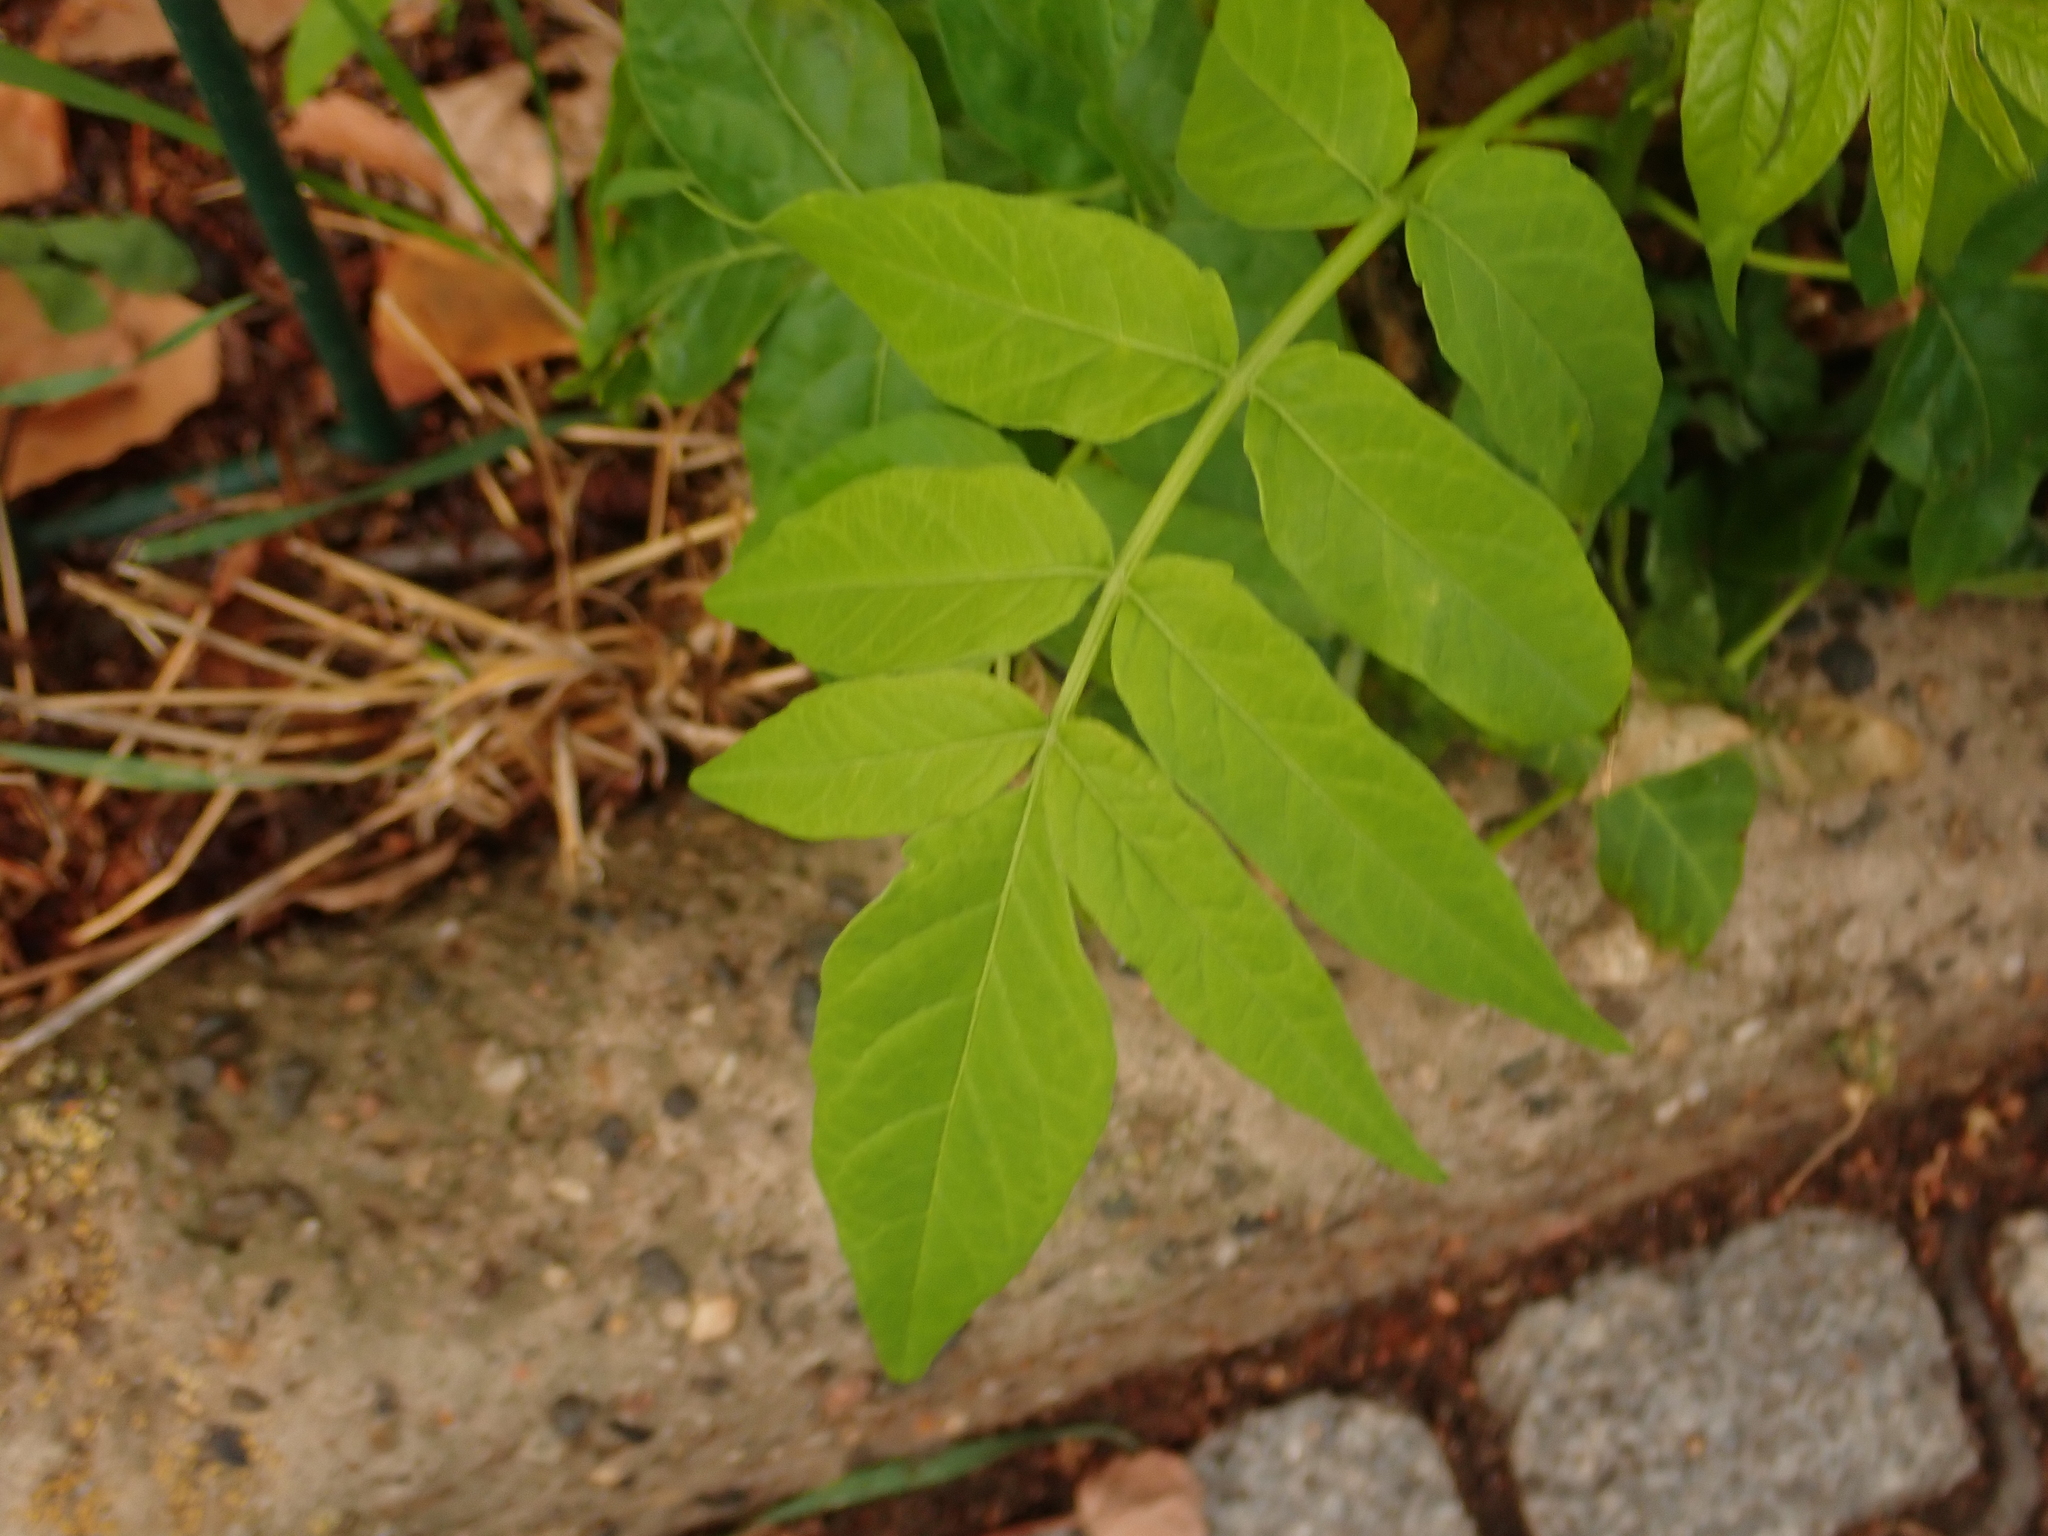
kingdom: Plantae
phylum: Tracheophyta
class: Magnoliopsida
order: Sapindales
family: Simaroubaceae
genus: Ailanthus
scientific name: Ailanthus altissima
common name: Tree-of-heaven
